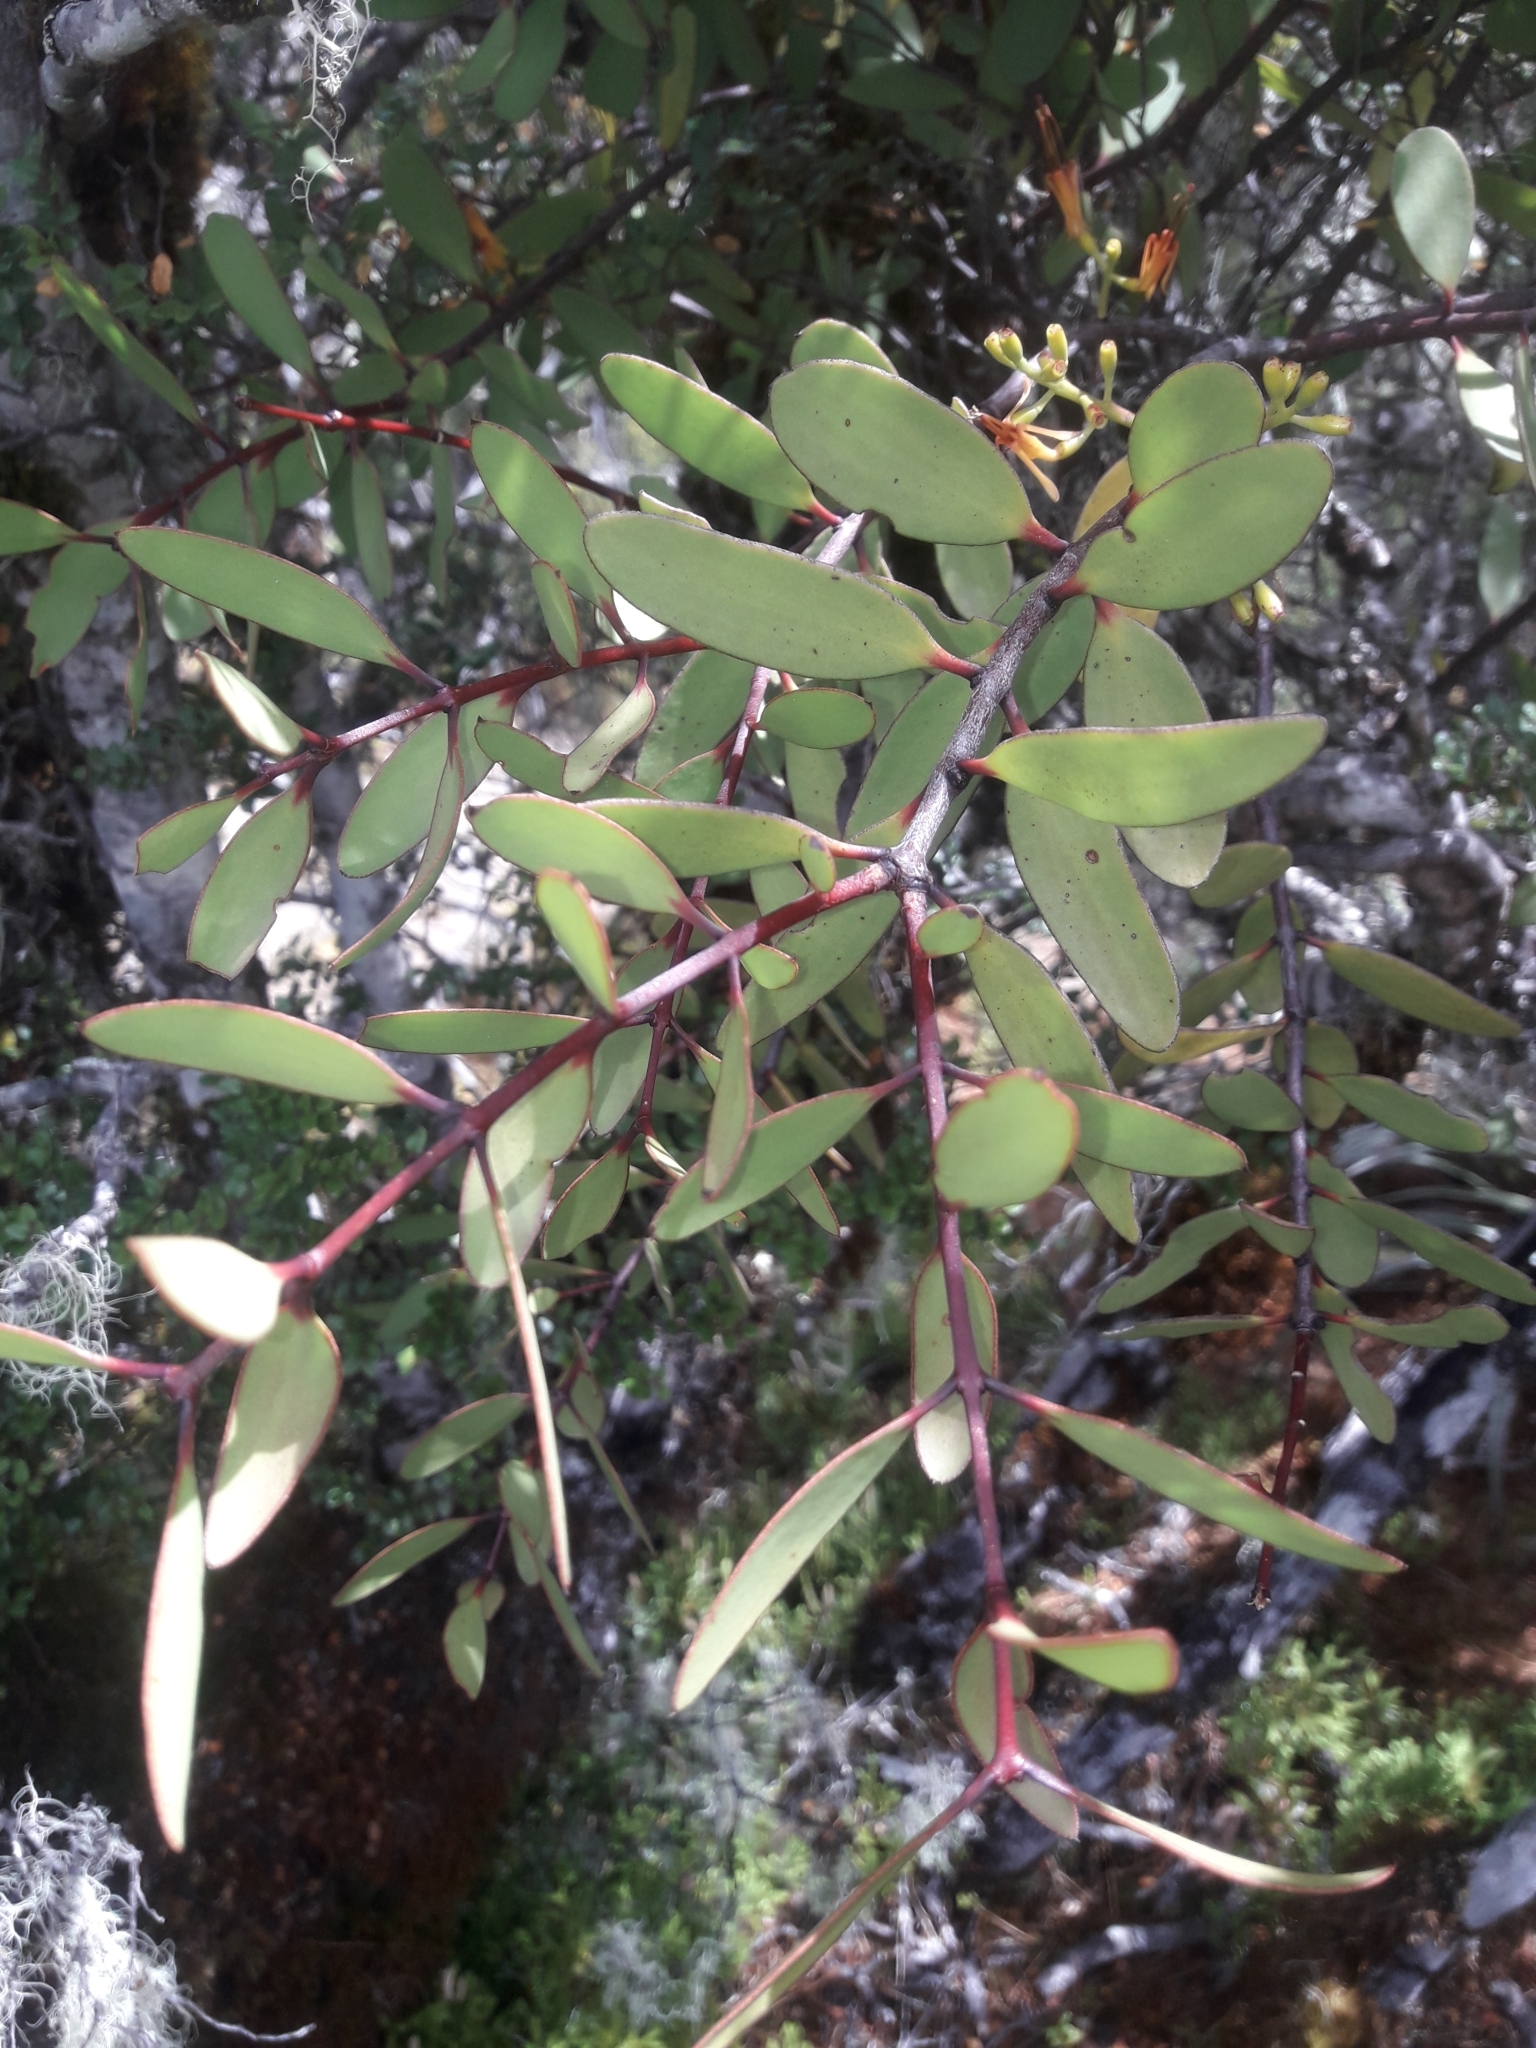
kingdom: Plantae
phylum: Tracheophyta
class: Magnoliopsida
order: Santalales
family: Loranthaceae
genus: Alepis
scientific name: Alepis flavida
